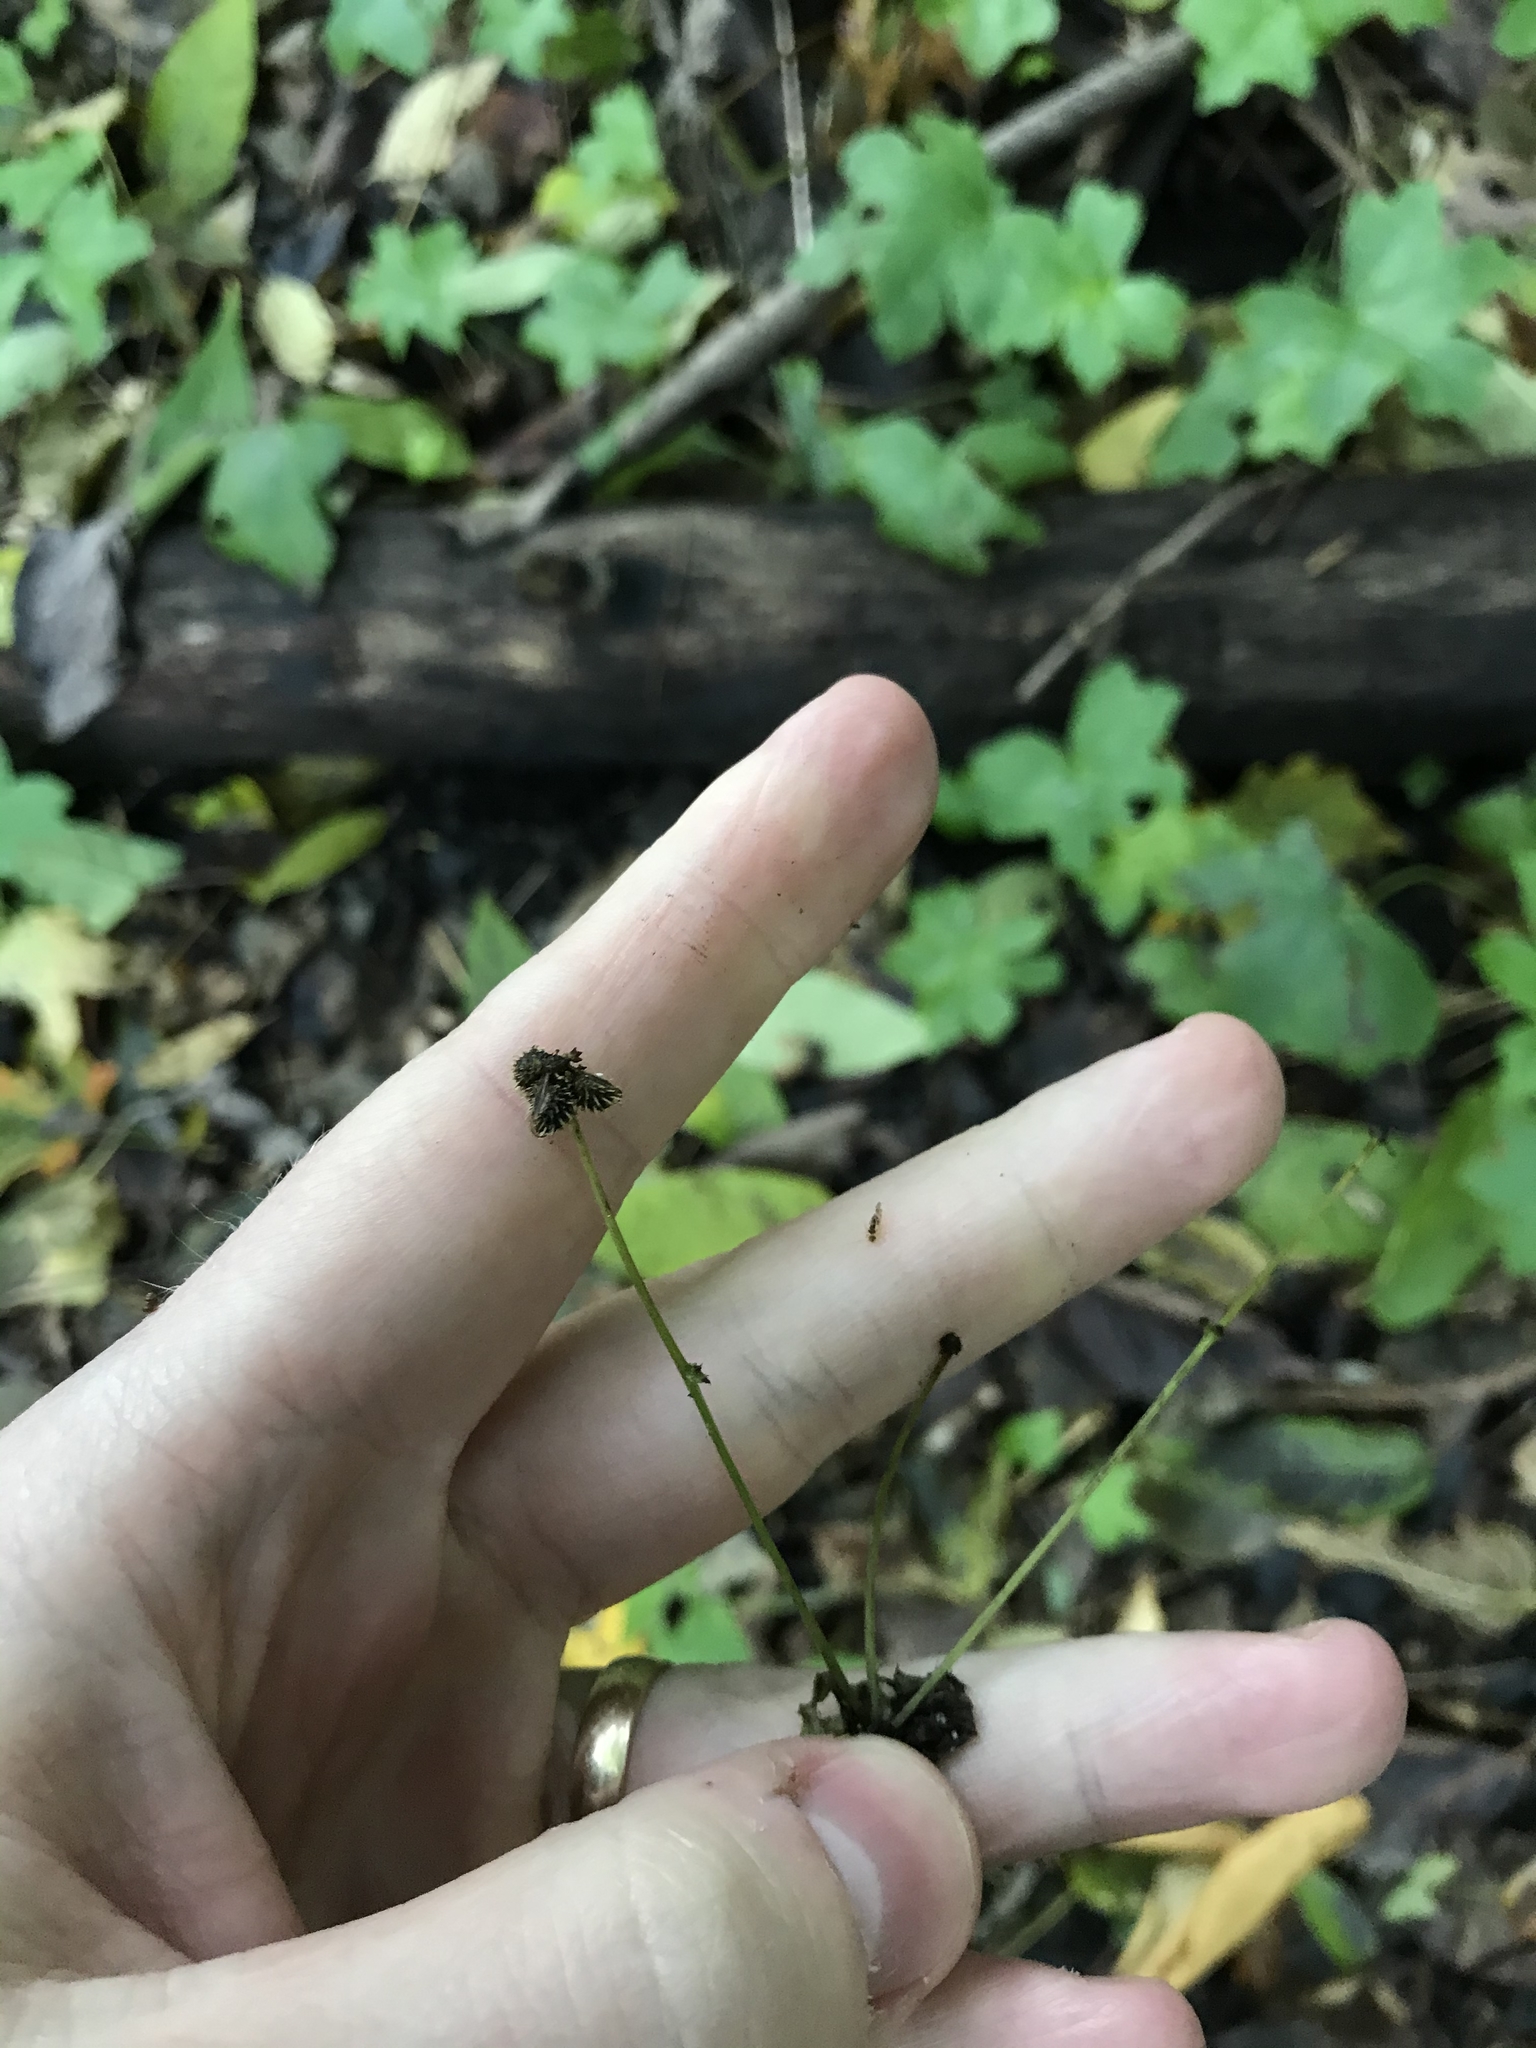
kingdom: Plantae
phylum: Tracheophyta
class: Magnoliopsida
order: Apiales
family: Apiaceae
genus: Sanicula
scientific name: Sanicula canadensis
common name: Canada sanicle
